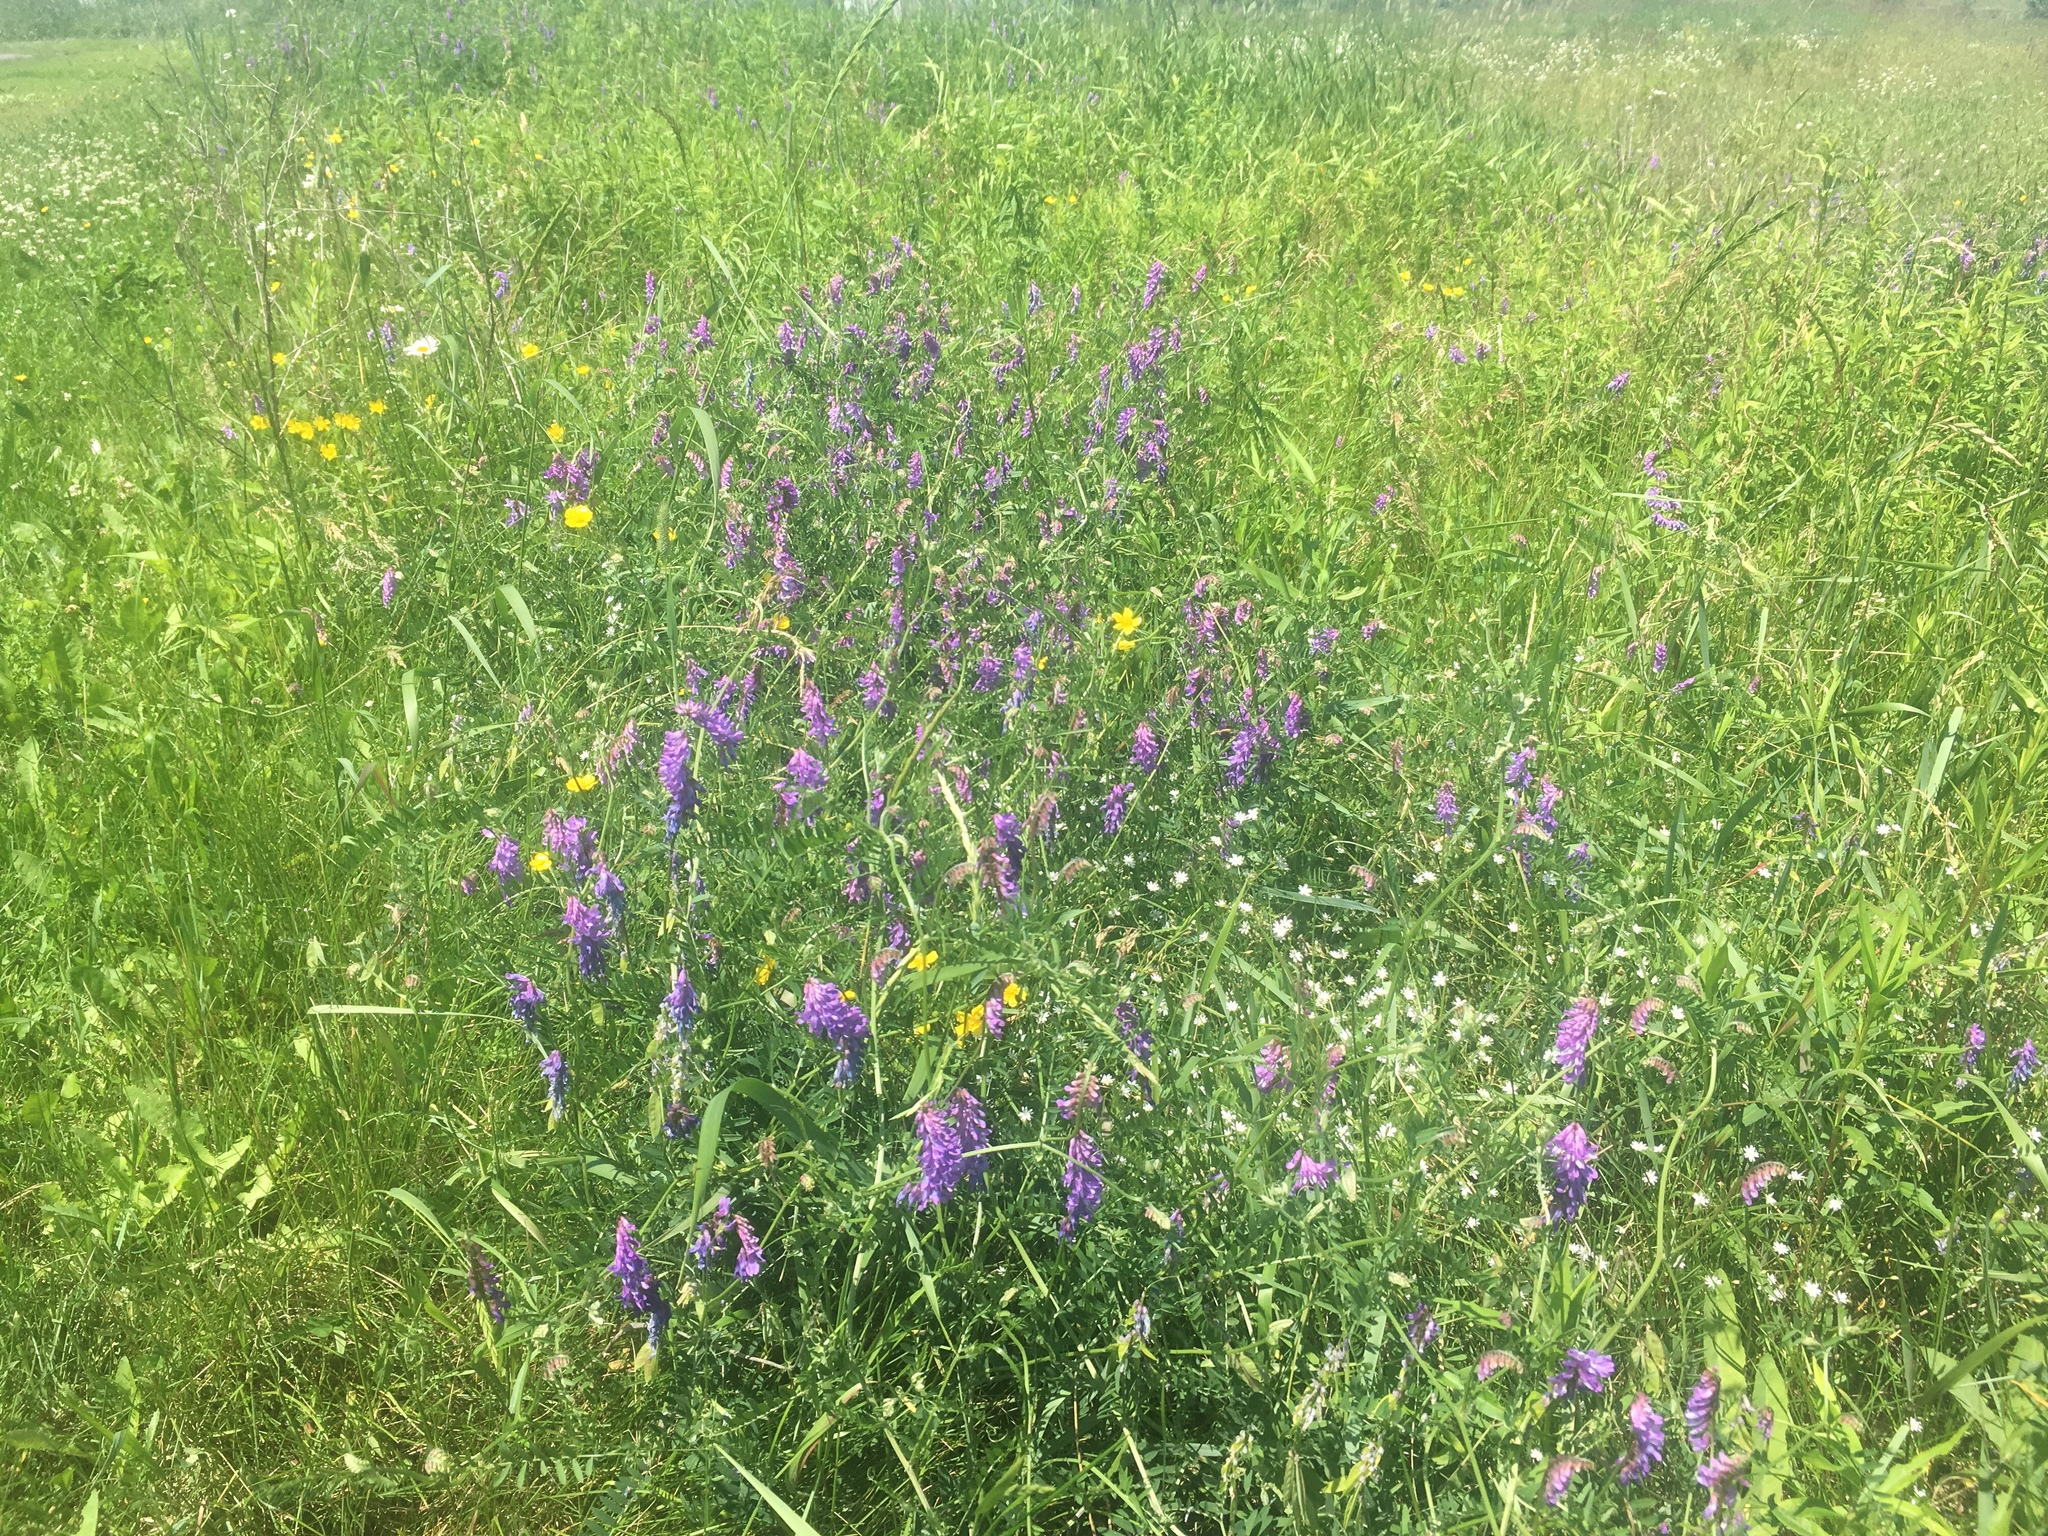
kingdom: Plantae
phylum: Tracheophyta
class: Magnoliopsida
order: Fabales
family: Fabaceae
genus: Vicia
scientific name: Vicia cracca
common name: Bird vetch
